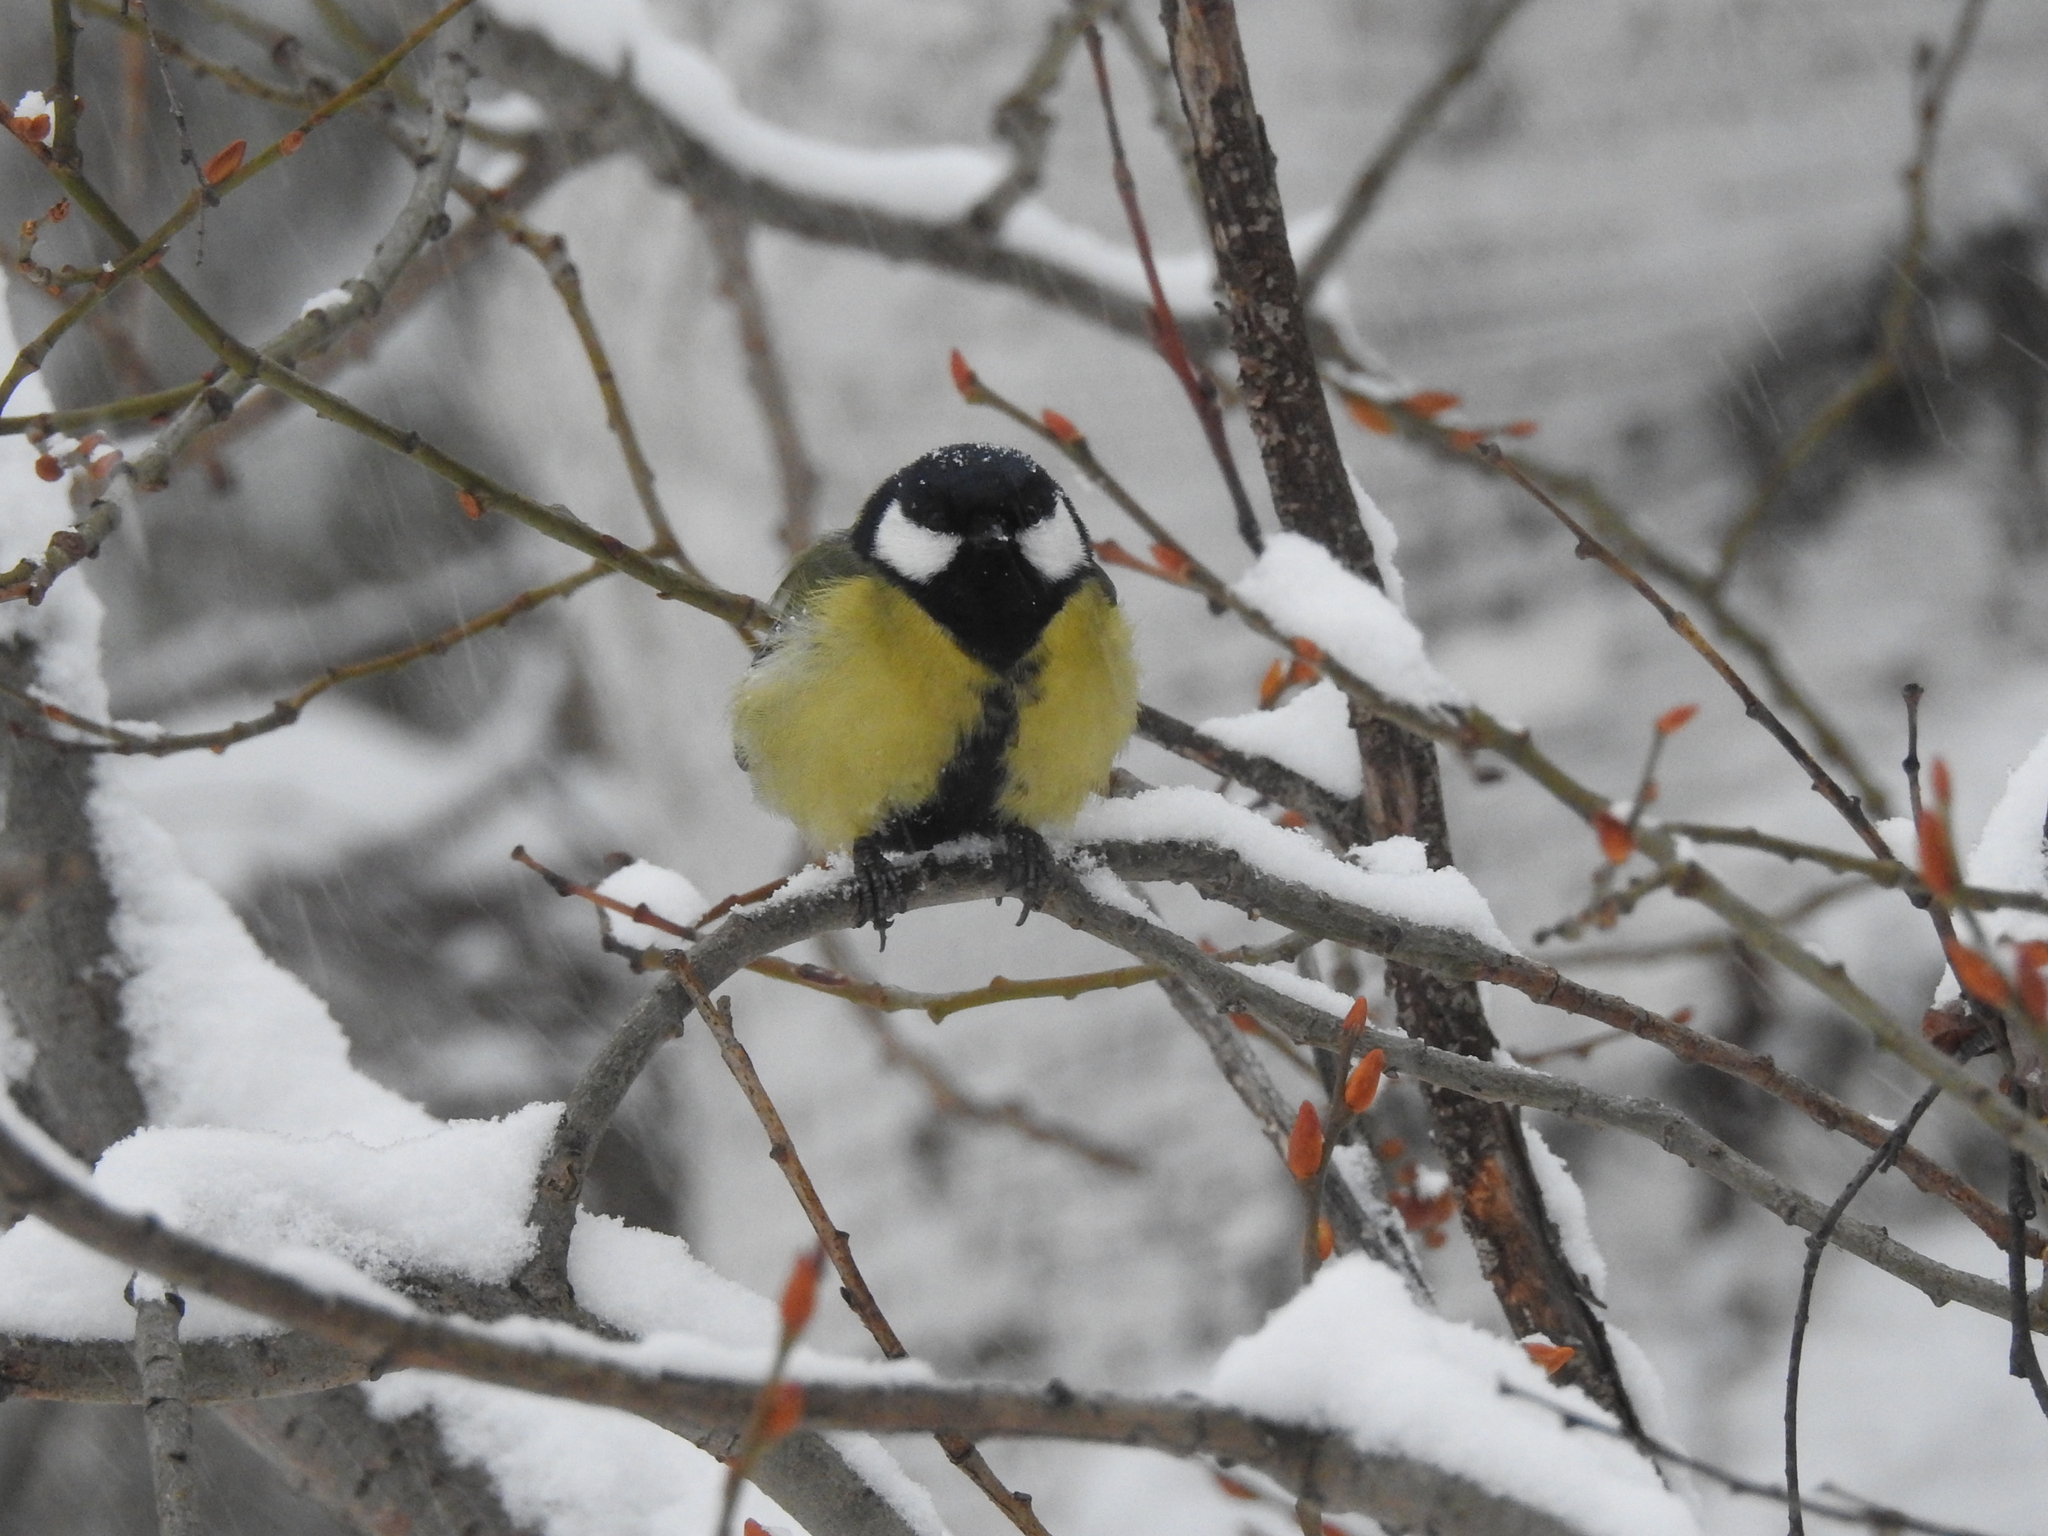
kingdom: Animalia
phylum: Chordata
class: Aves
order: Passeriformes
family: Paridae
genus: Parus
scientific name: Parus major
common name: Great tit
